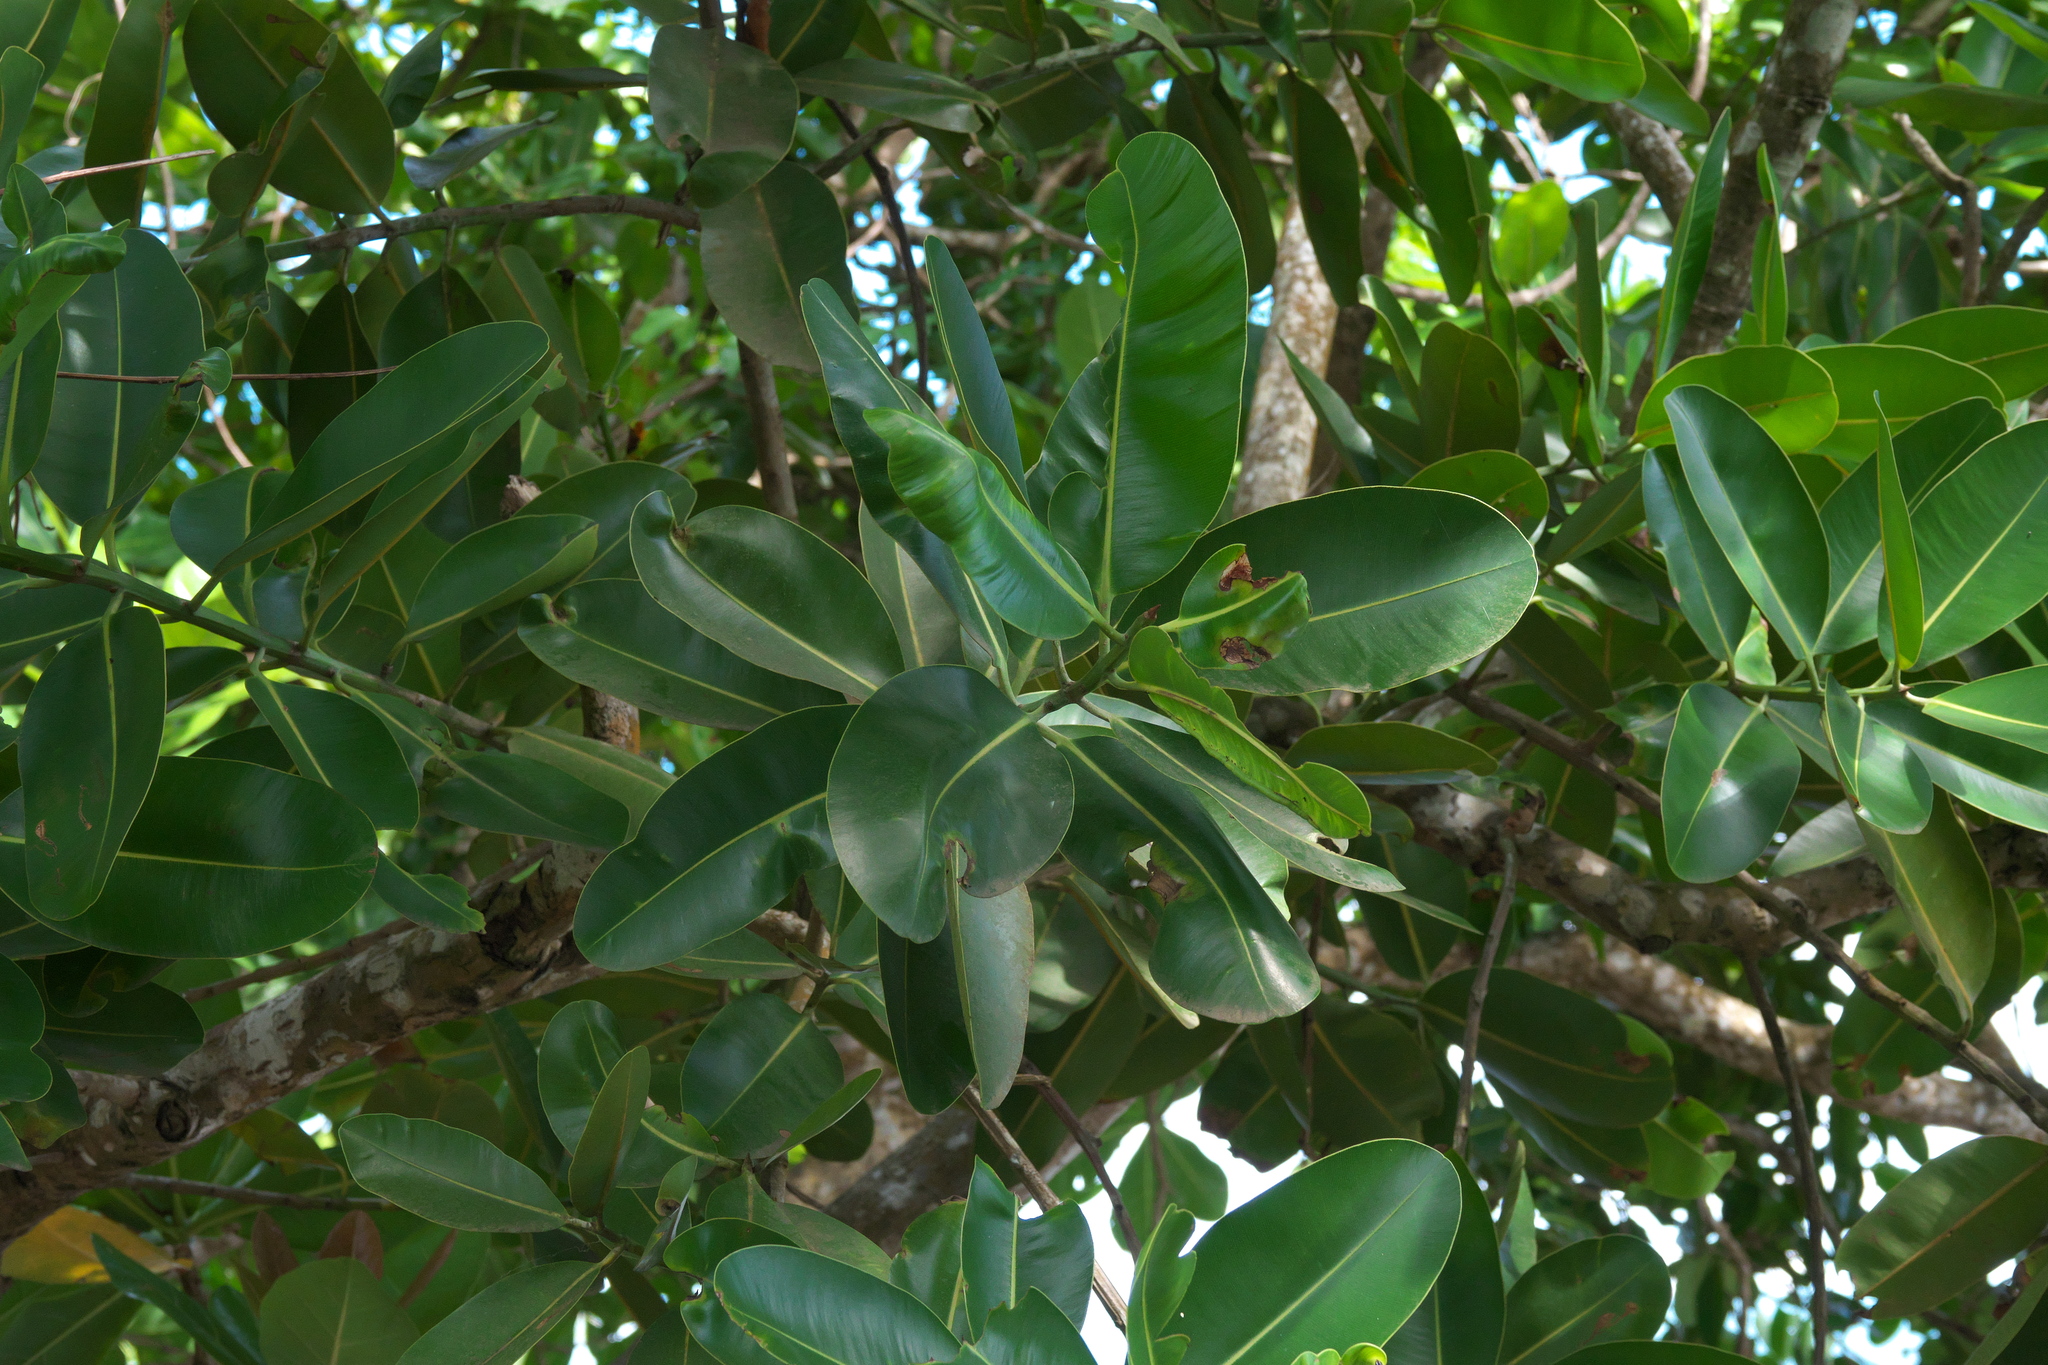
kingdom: Plantae
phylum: Tracheophyta
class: Magnoliopsida
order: Malpighiales
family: Calophyllaceae
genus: Calophyllum
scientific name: Calophyllum inophyllum
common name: Alexandrian laurel
